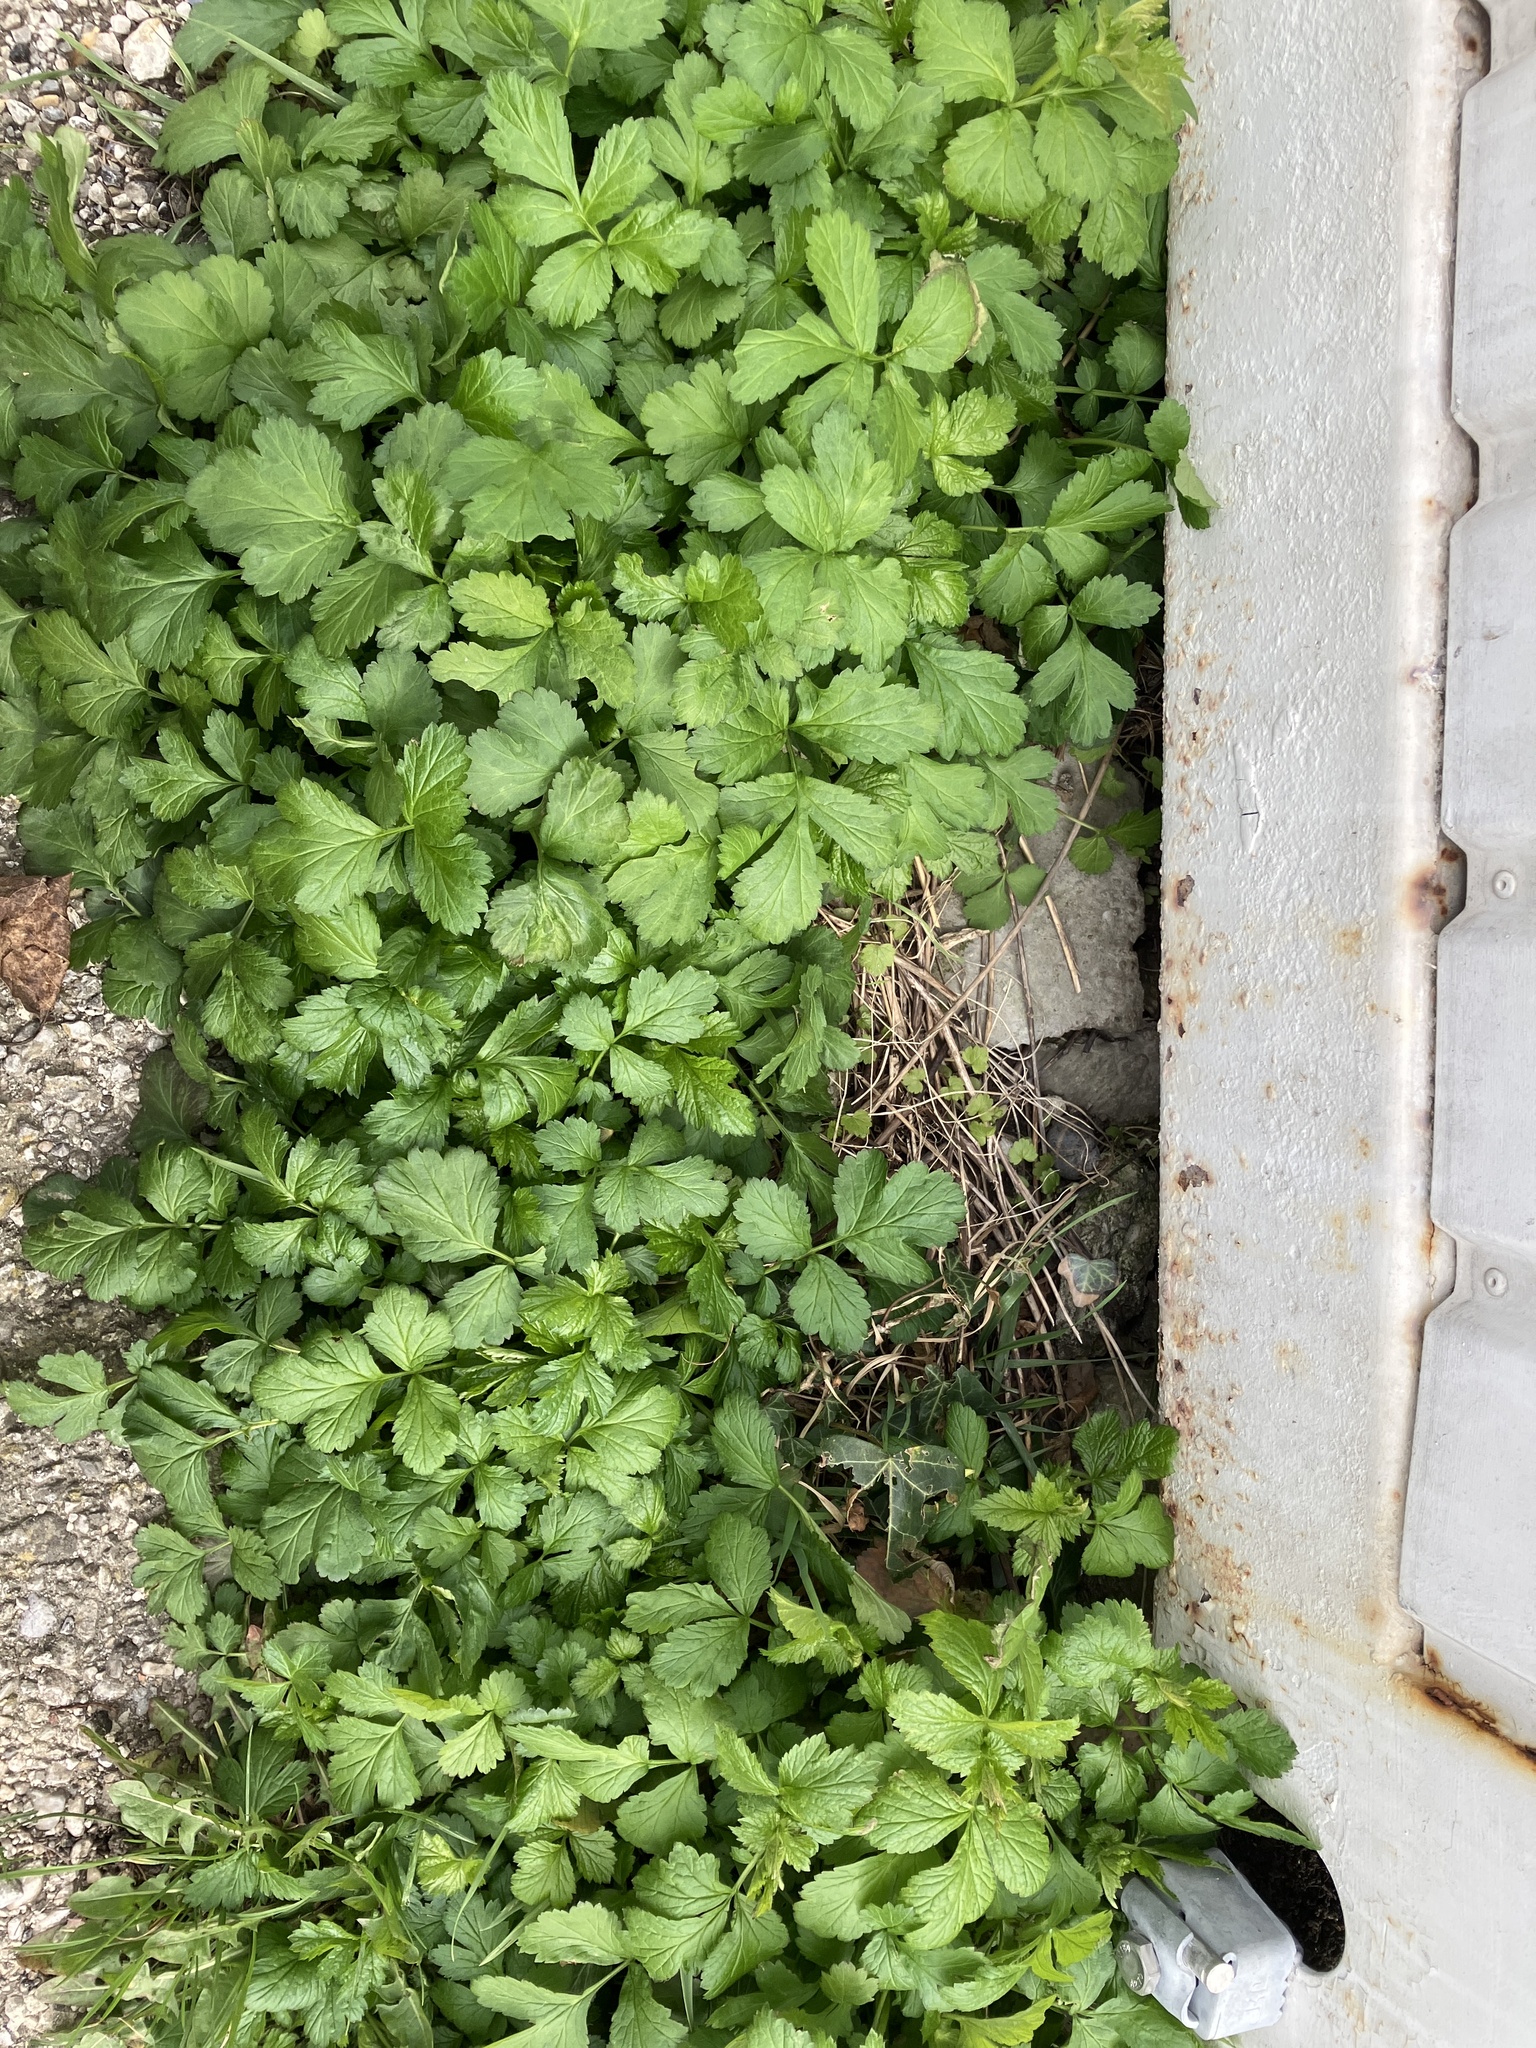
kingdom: Plantae
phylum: Tracheophyta
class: Magnoliopsida
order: Rosales
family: Rosaceae
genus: Geum
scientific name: Geum urbanum
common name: Wood avens
